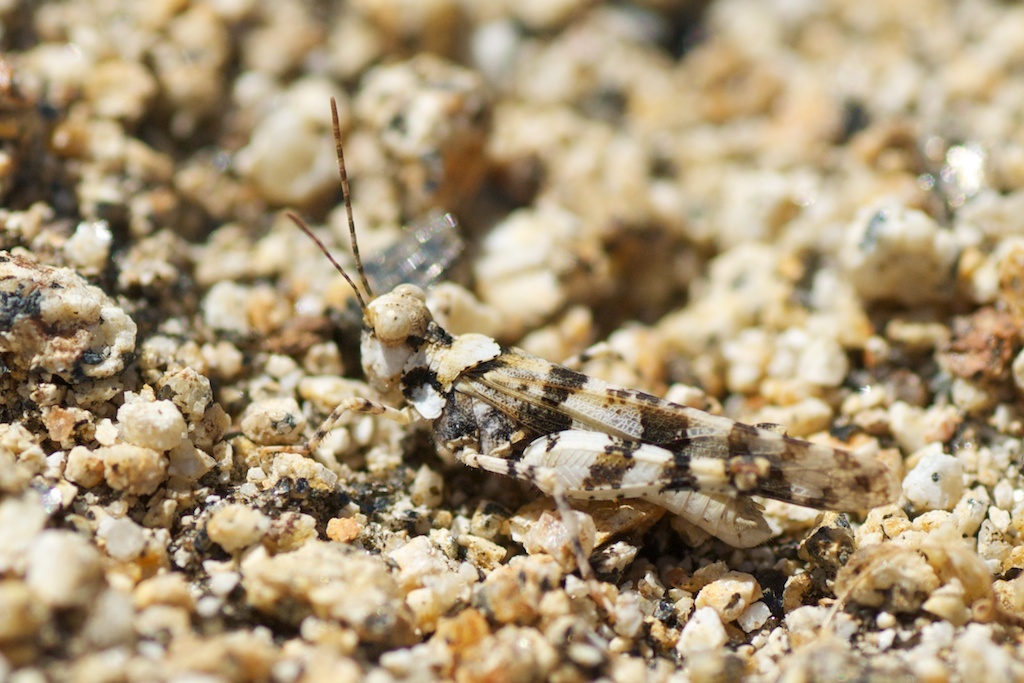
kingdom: Animalia
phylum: Arthropoda
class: Insecta
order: Orthoptera
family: Acrididae
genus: Trimerotropis
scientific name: Trimerotropis albescens
